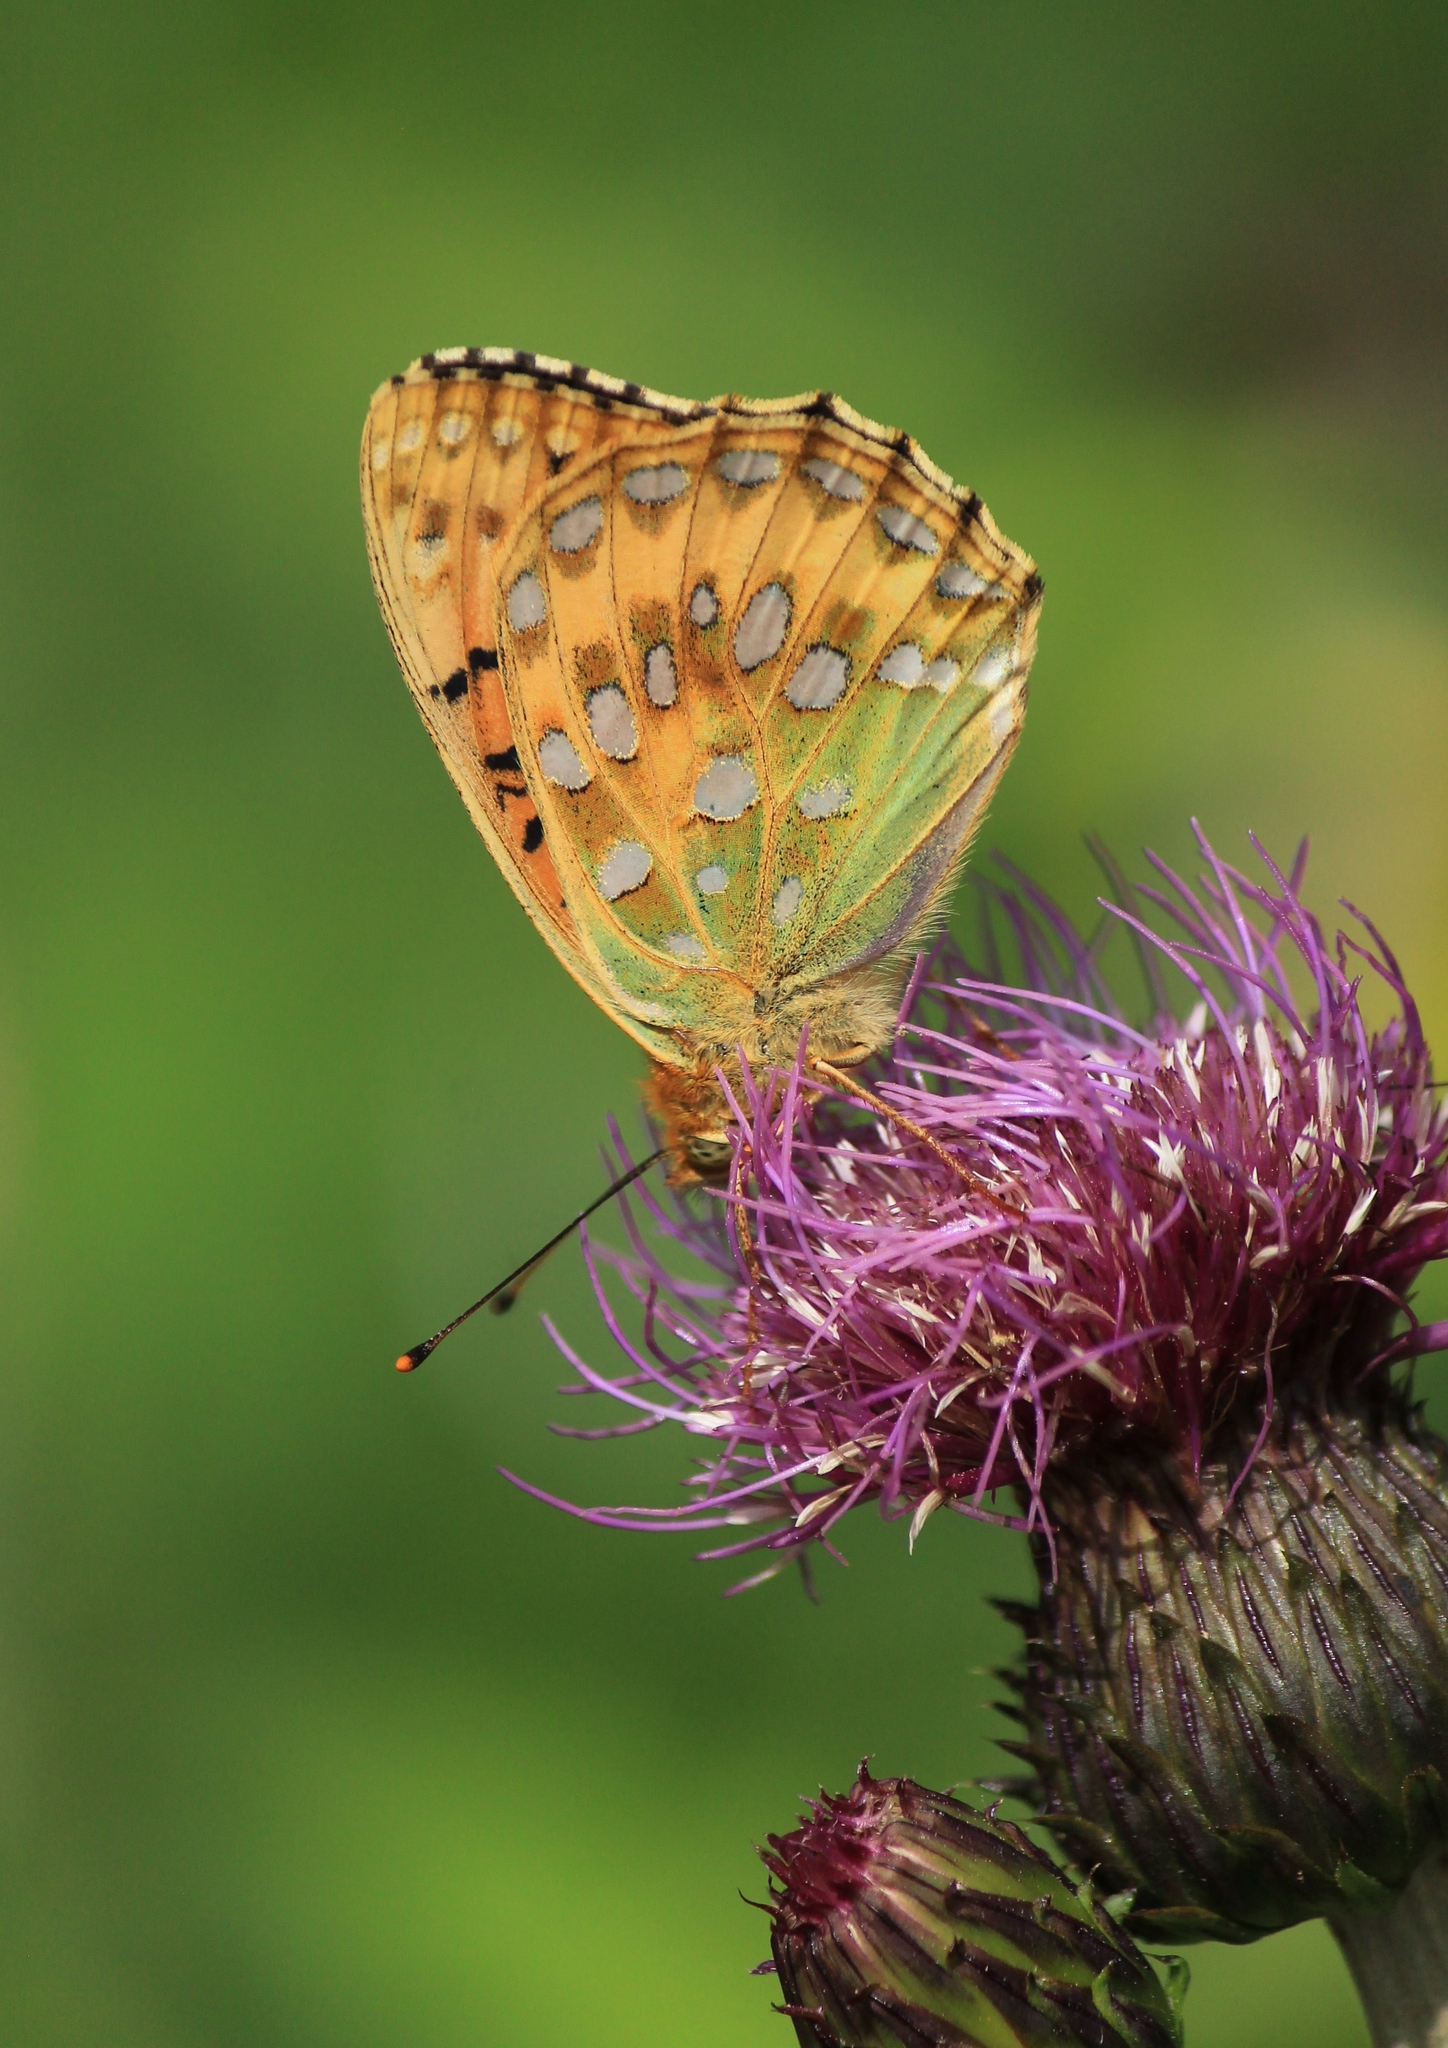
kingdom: Animalia
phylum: Arthropoda
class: Insecta
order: Lepidoptera
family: Nymphalidae
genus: Speyeria
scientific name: Speyeria aglaja
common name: Dark green fritillary
